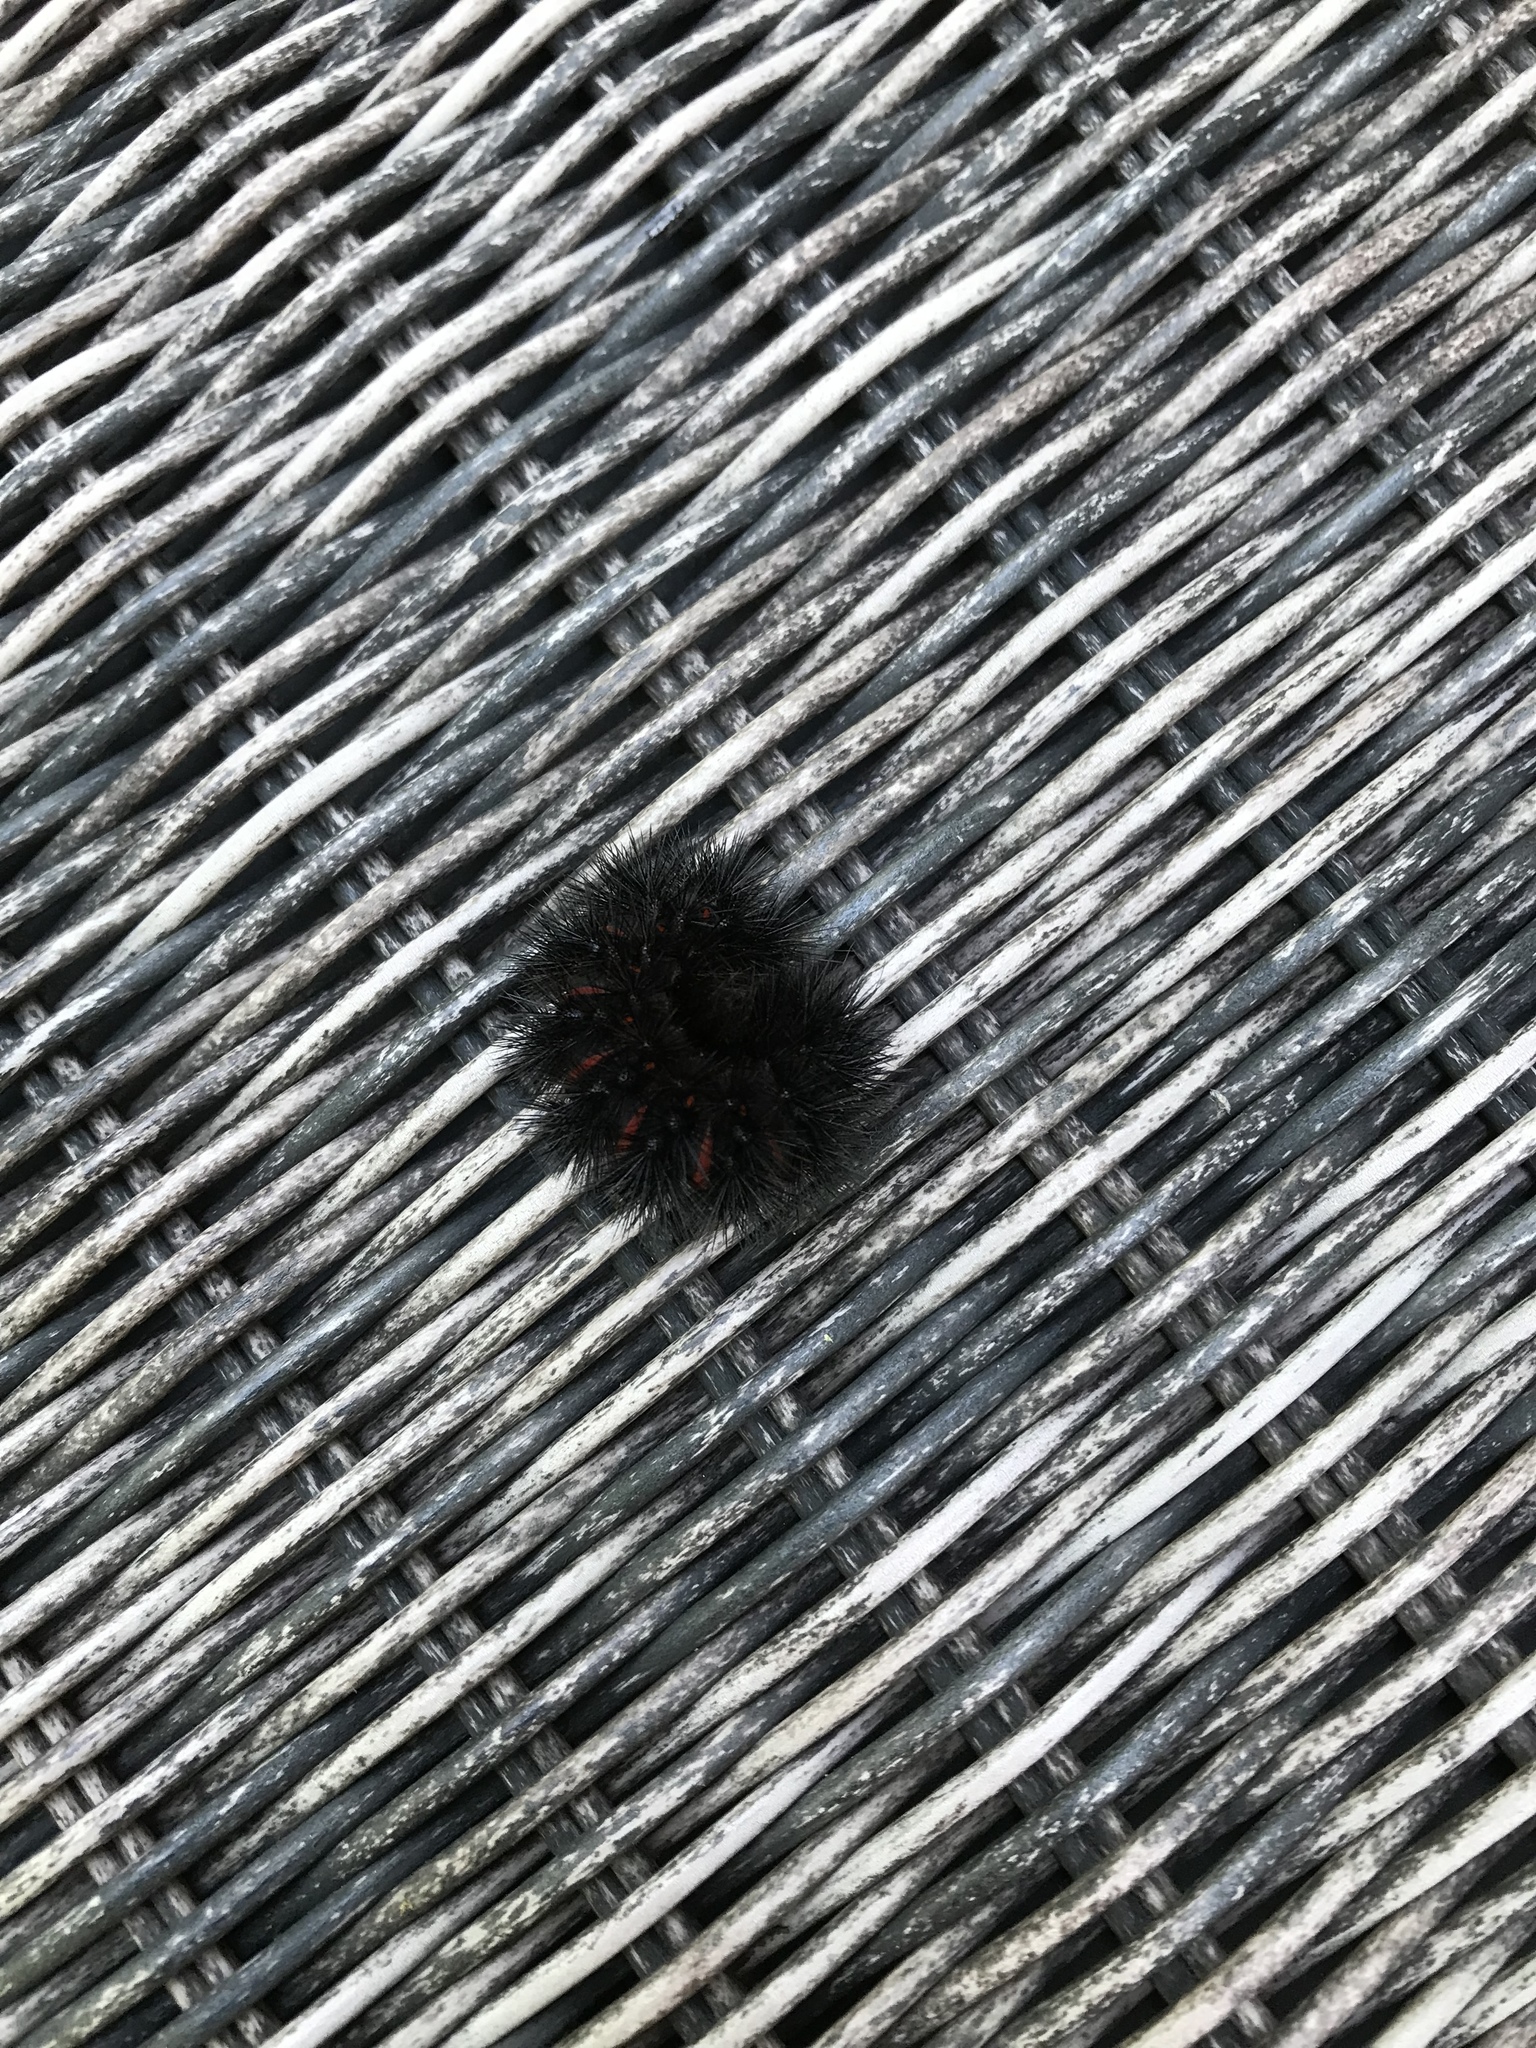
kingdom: Animalia
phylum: Arthropoda
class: Insecta
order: Lepidoptera
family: Erebidae
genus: Hypercompe
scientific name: Hypercompe scribonia
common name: Giant leopard moth
